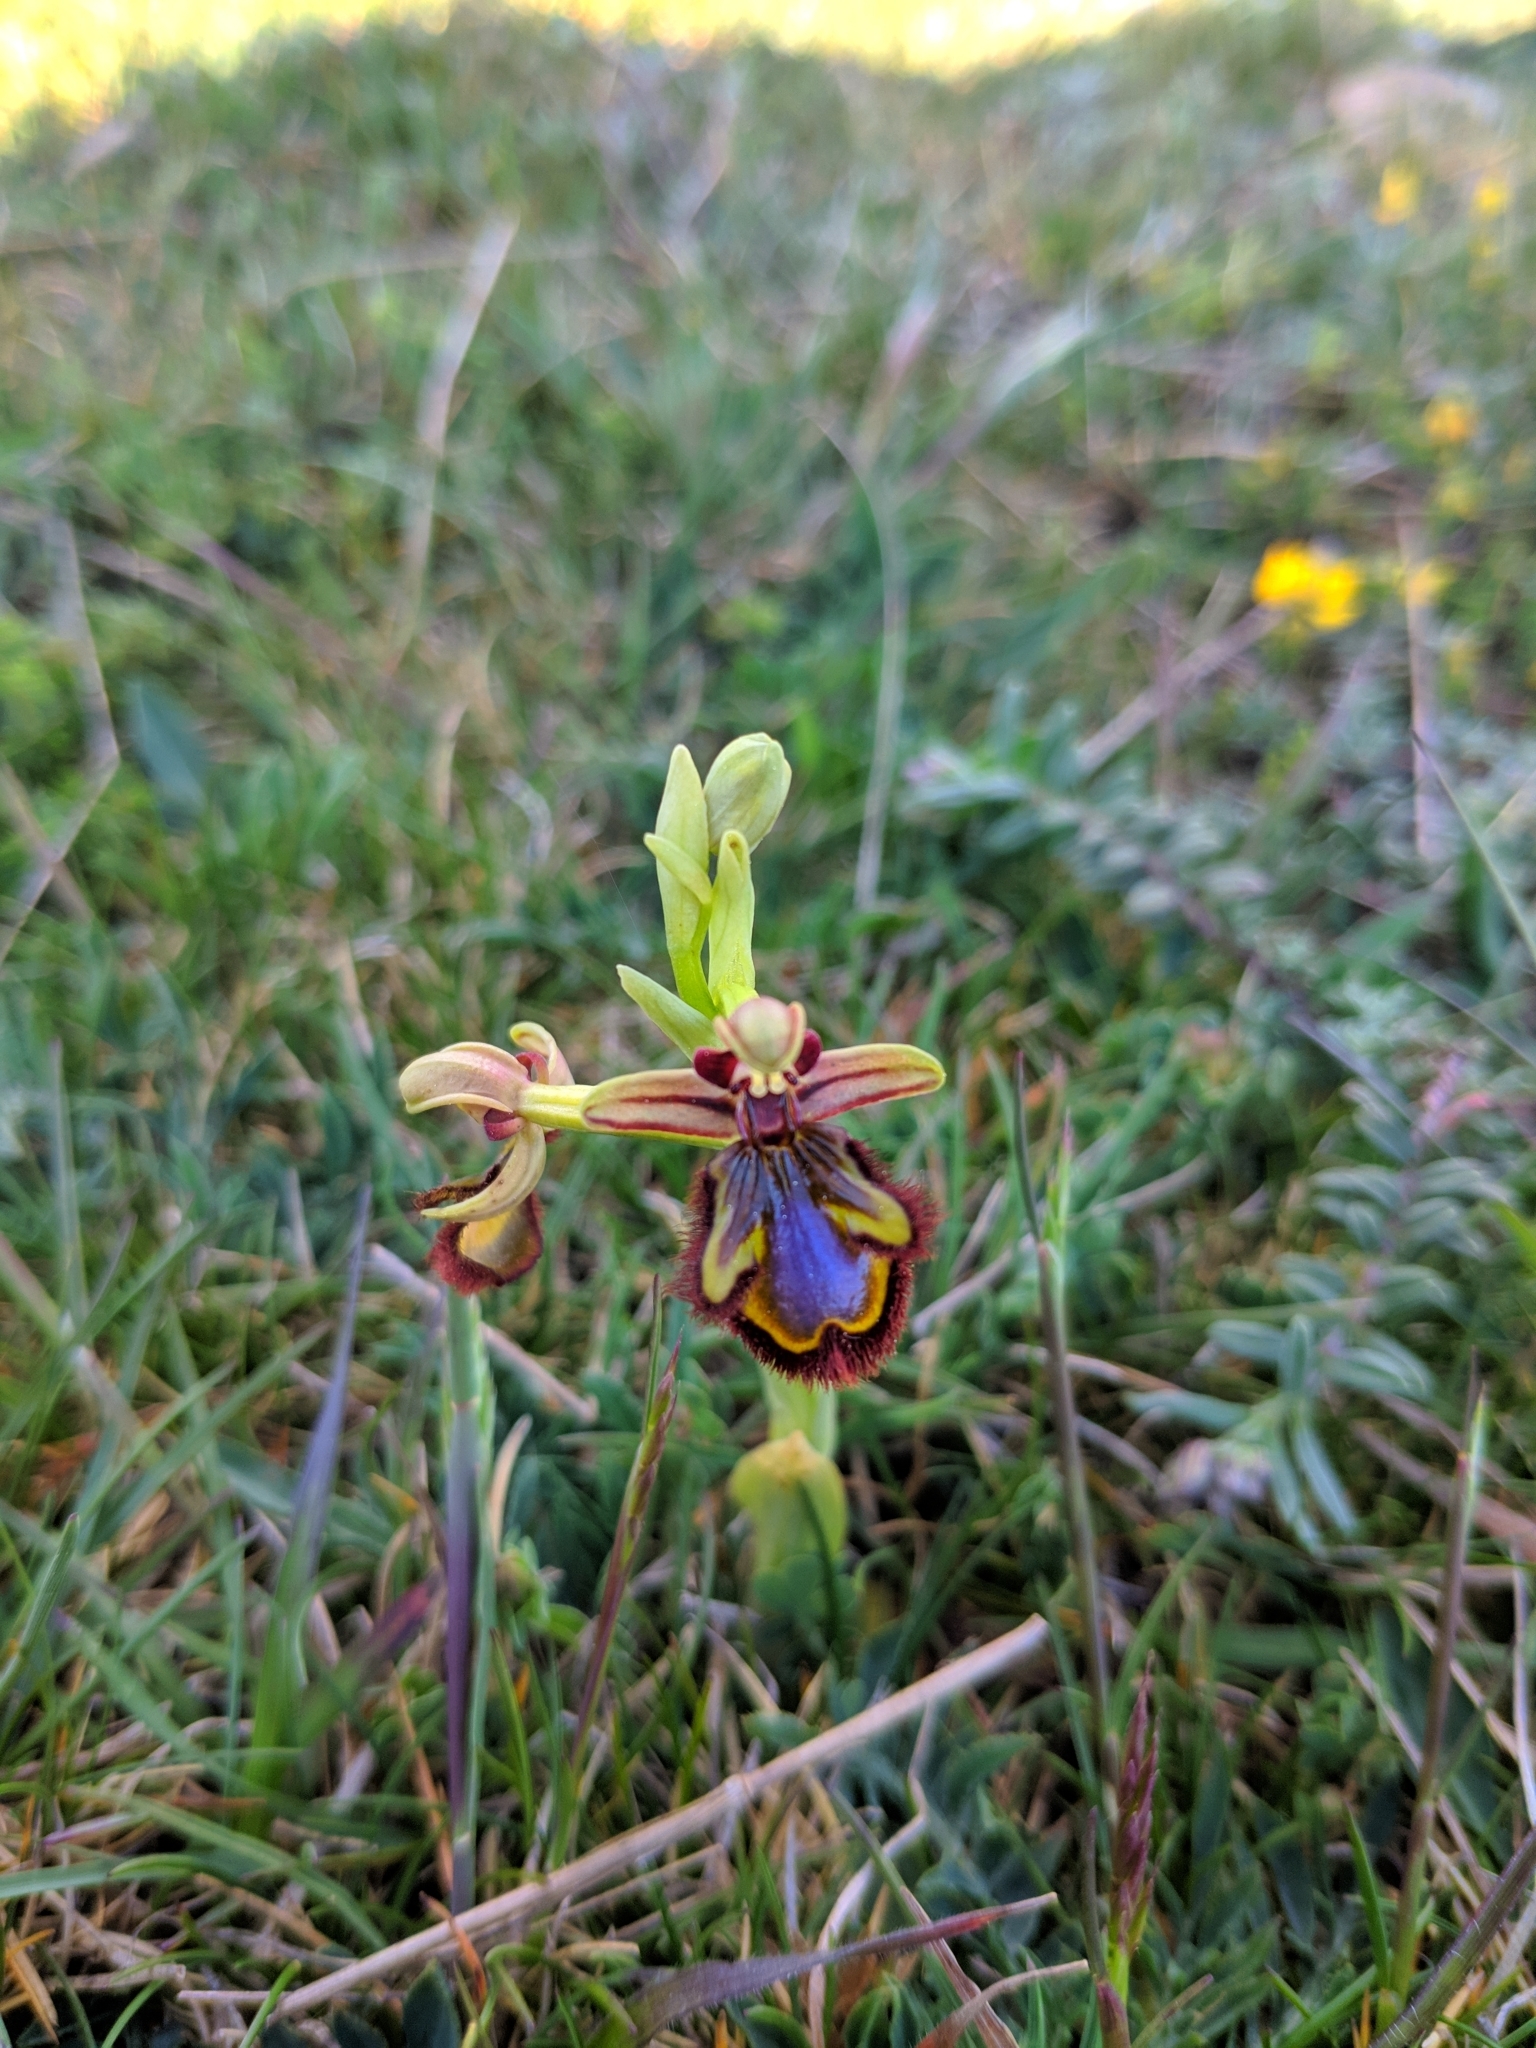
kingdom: Plantae
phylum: Tracheophyta
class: Liliopsida
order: Asparagales
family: Orchidaceae
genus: Ophrys
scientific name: Ophrys speculum
